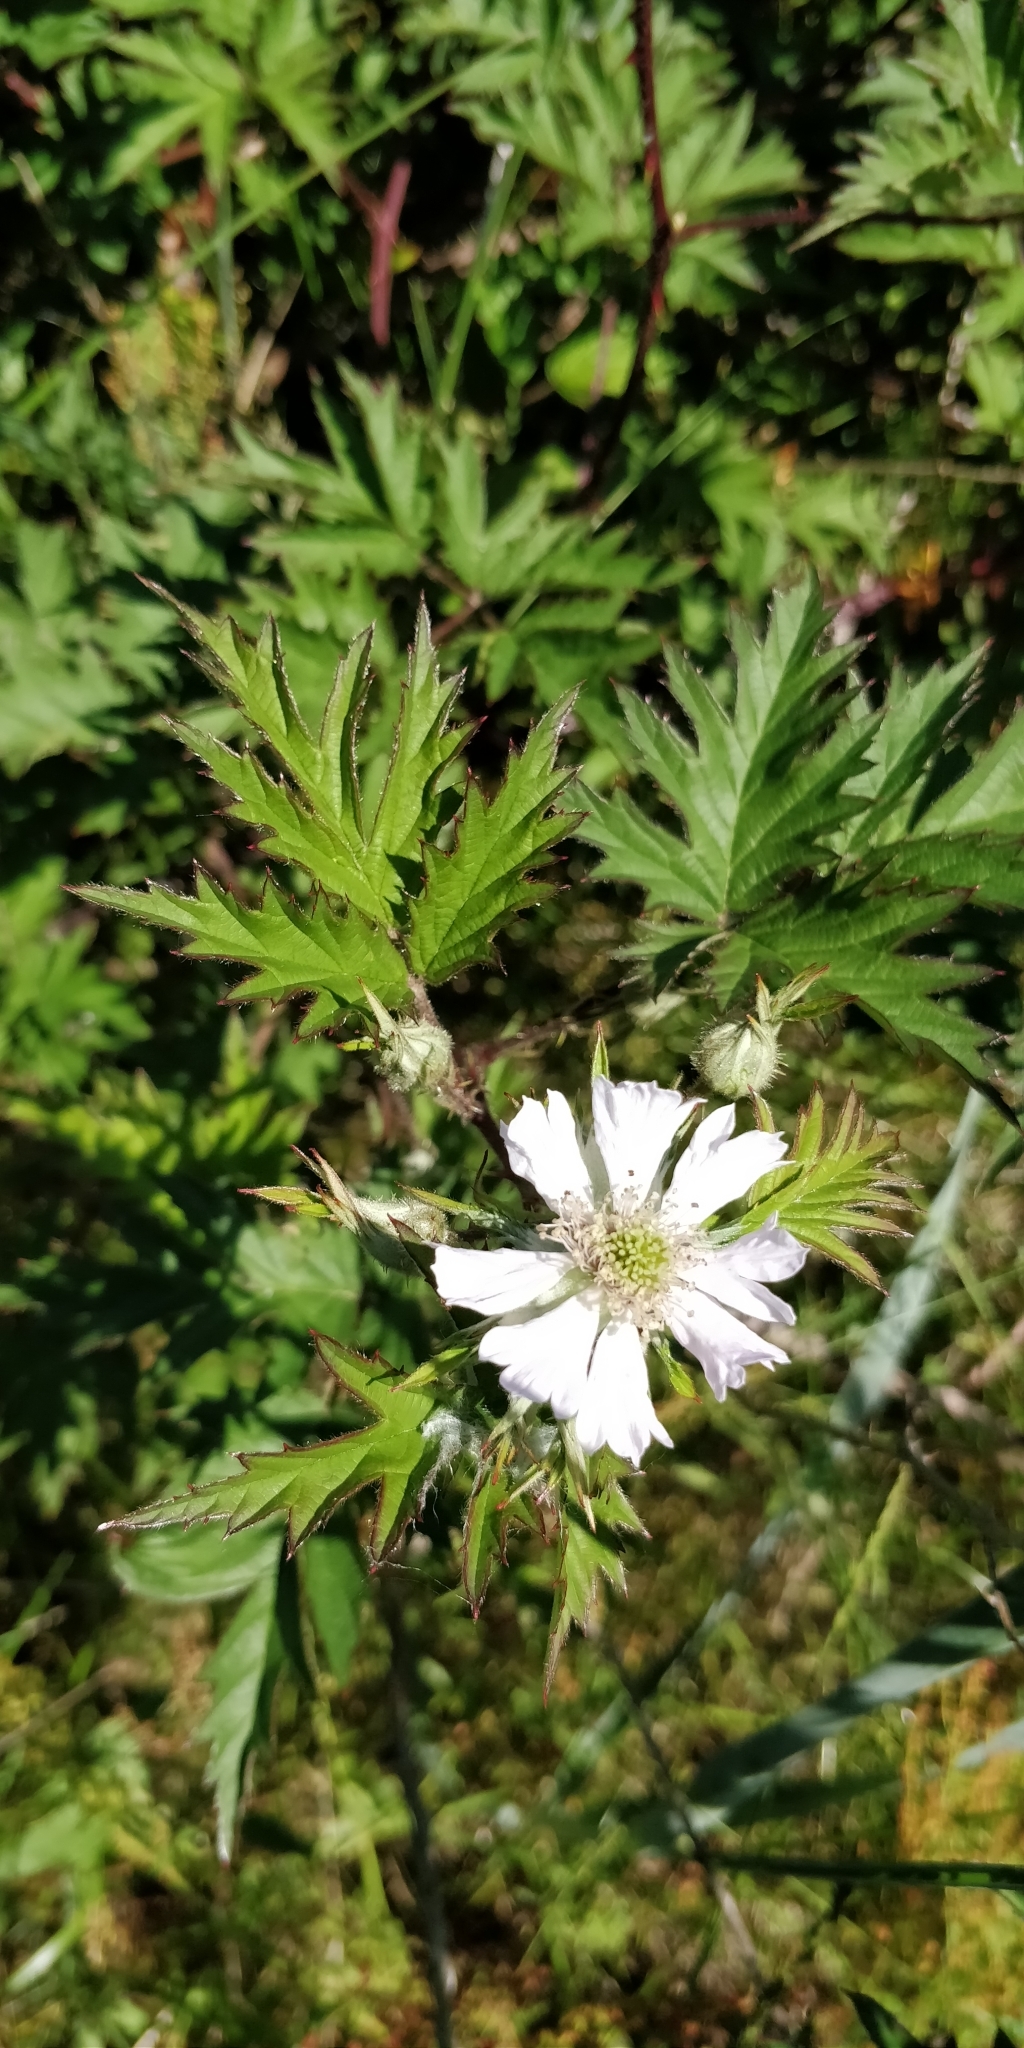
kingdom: Plantae
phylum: Tracheophyta
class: Magnoliopsida
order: Rosales
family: Rosaceae
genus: Rubus
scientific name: Rubus laciniatus
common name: Evergreen blackberry
